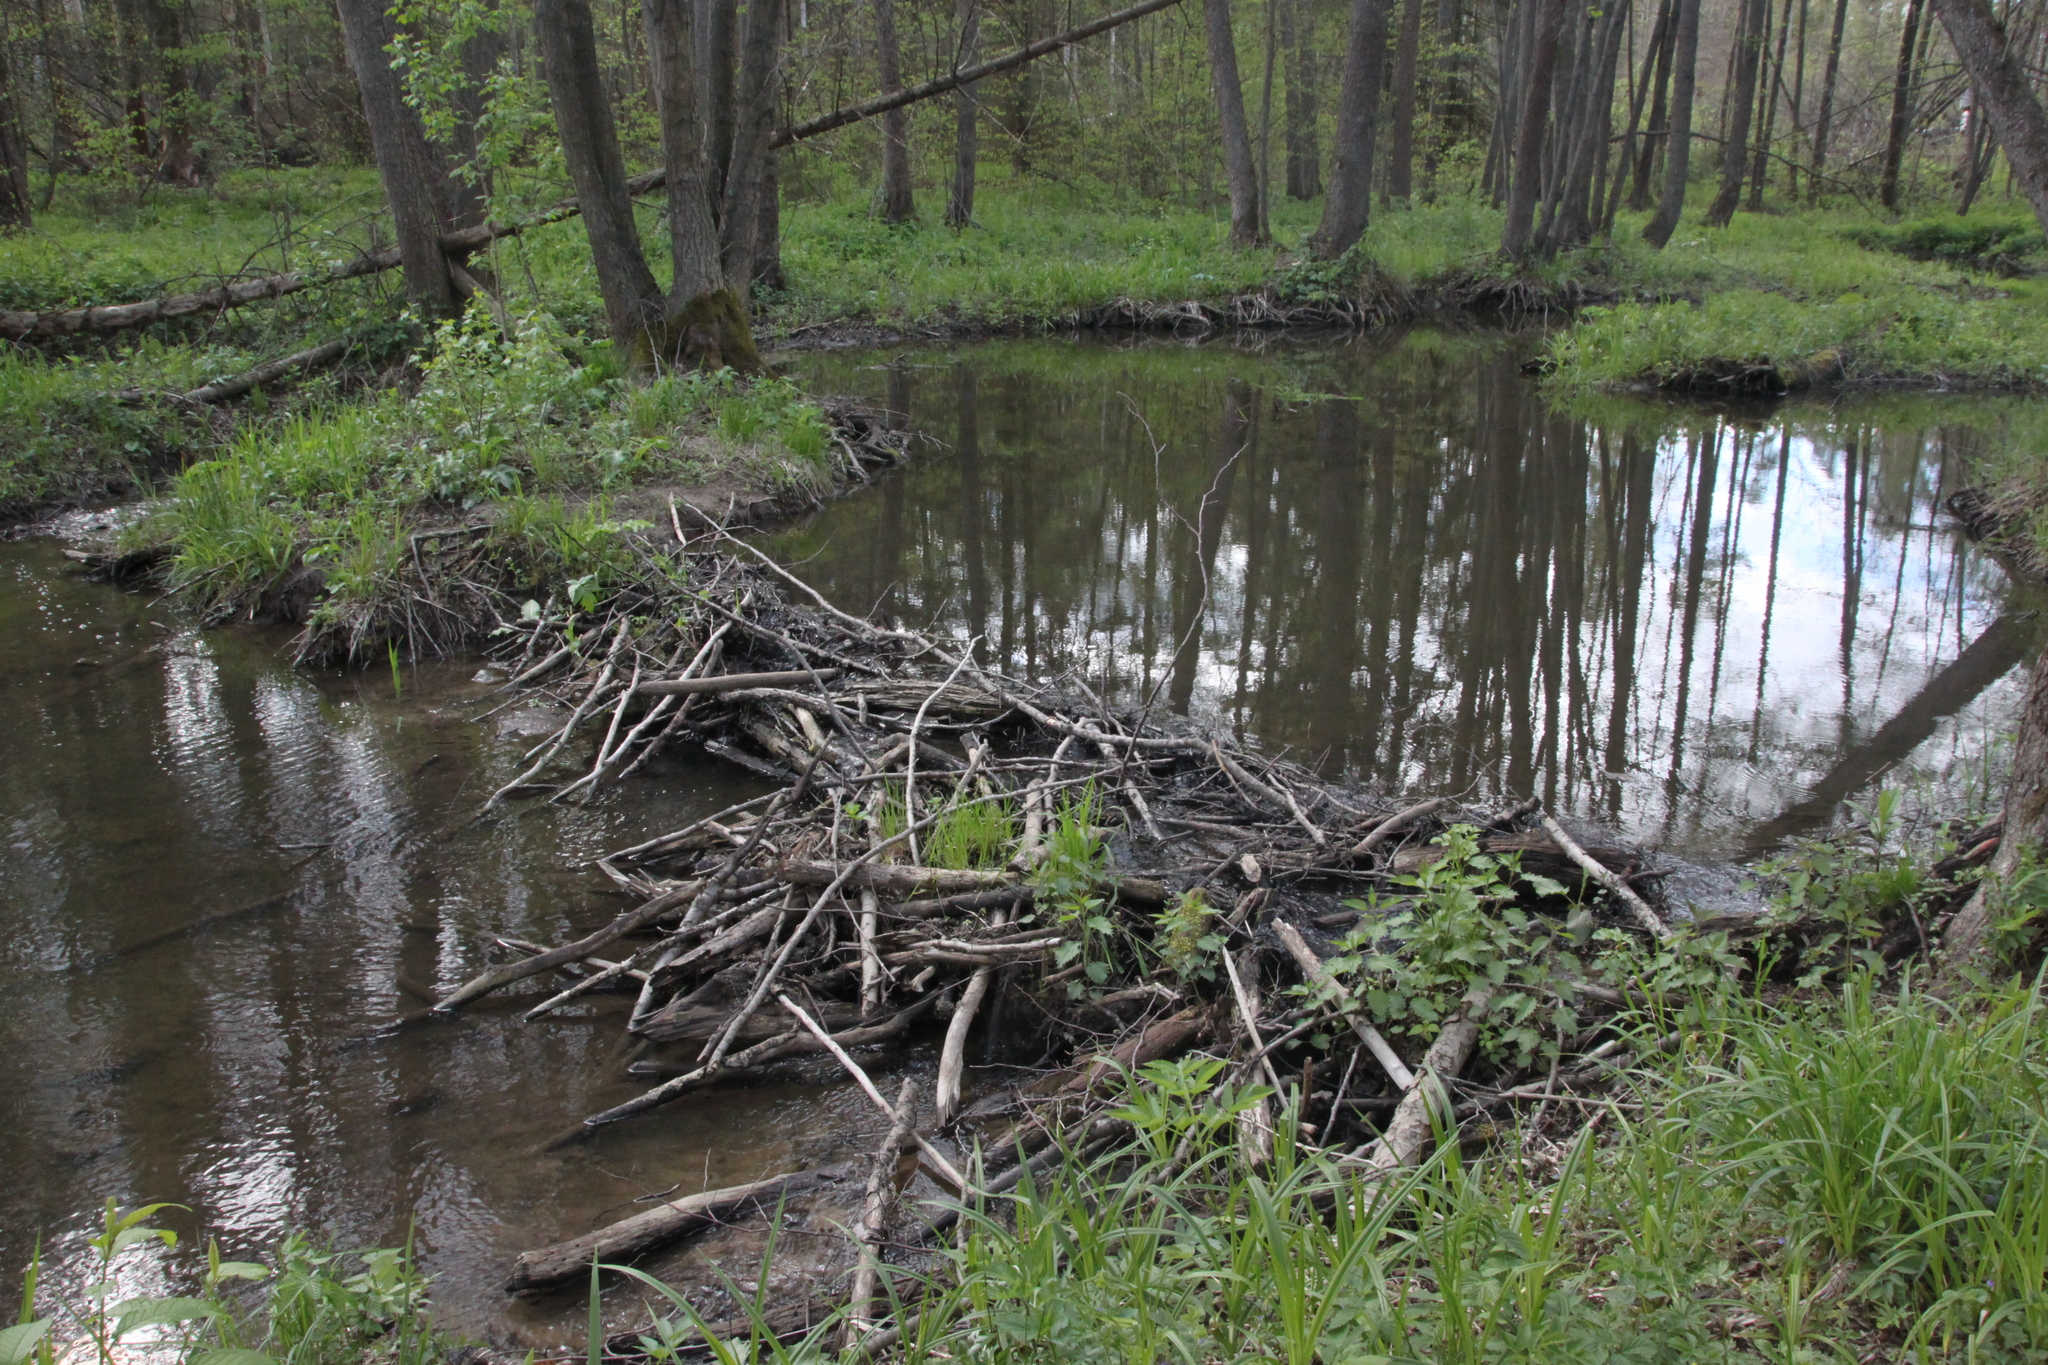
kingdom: Animalia
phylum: Chordata
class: Mammalia
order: Rodentia
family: Castoridae
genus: Castor
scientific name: Castor fiber
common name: Eurasian beaver
